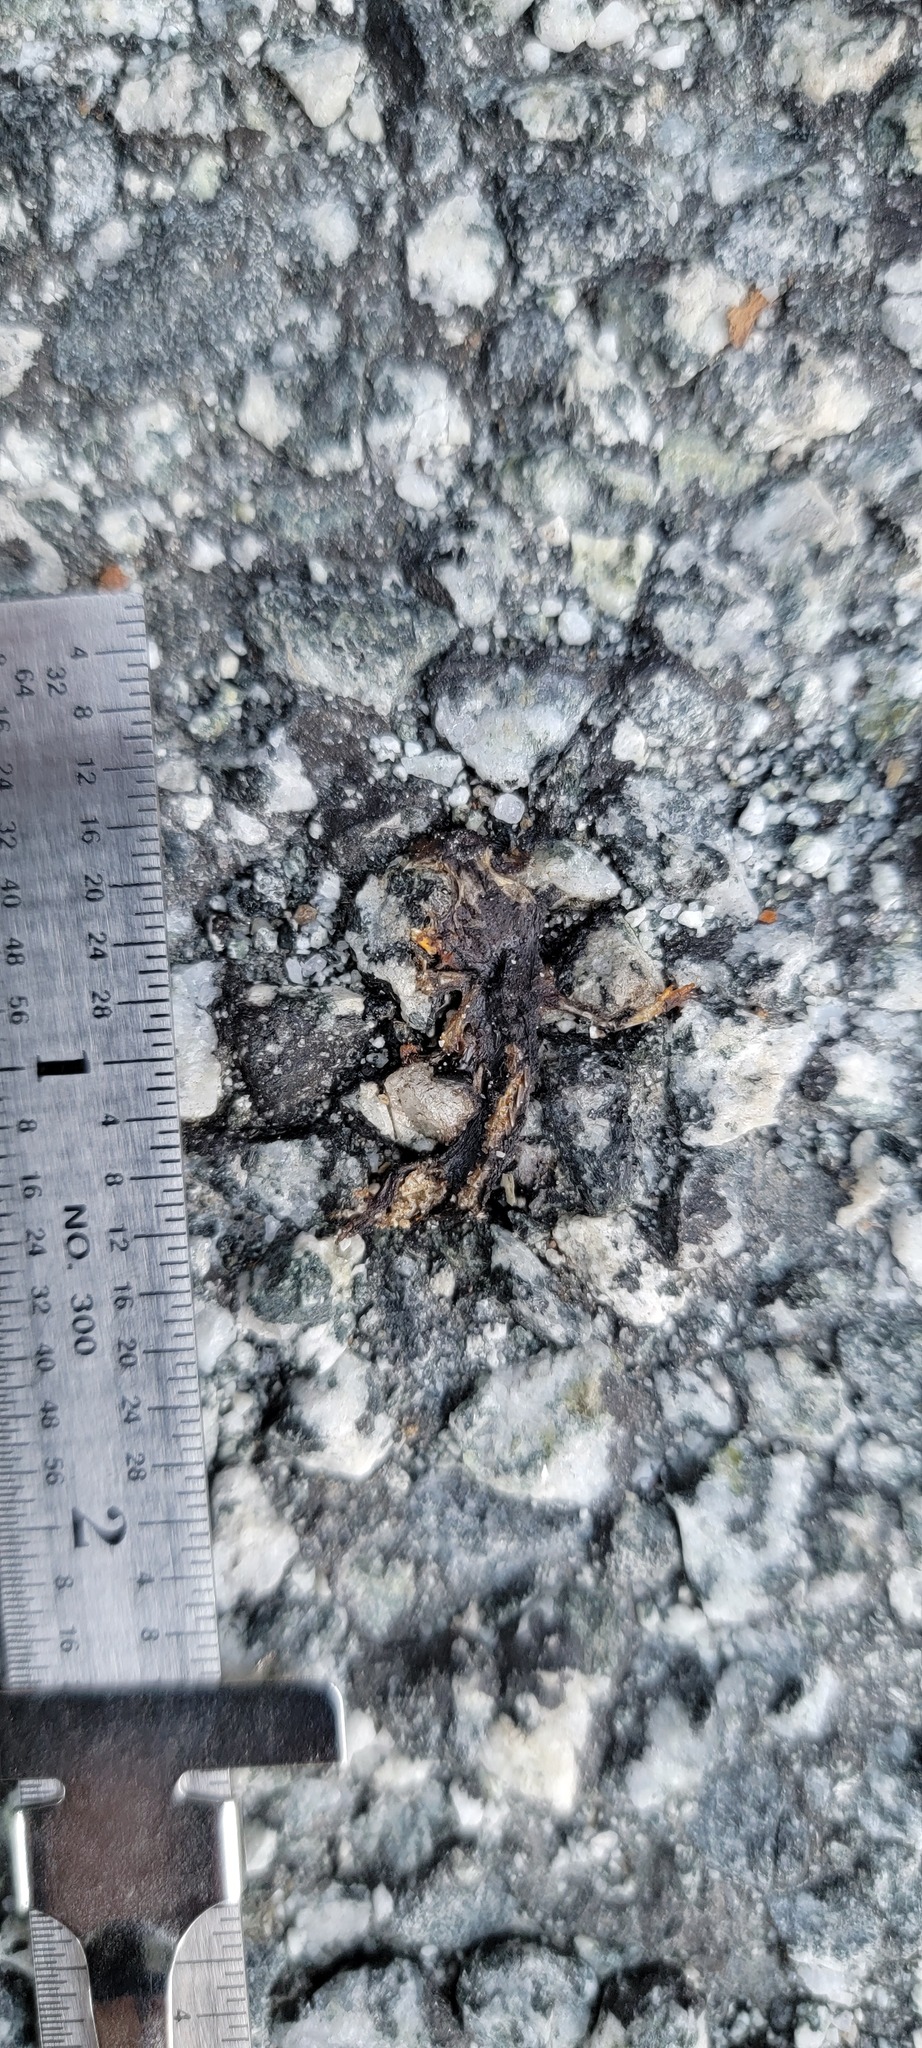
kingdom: Animalia
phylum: Chordata
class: Amphibia
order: Caudata
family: Salamandridae
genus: Taricha
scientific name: Taricha
